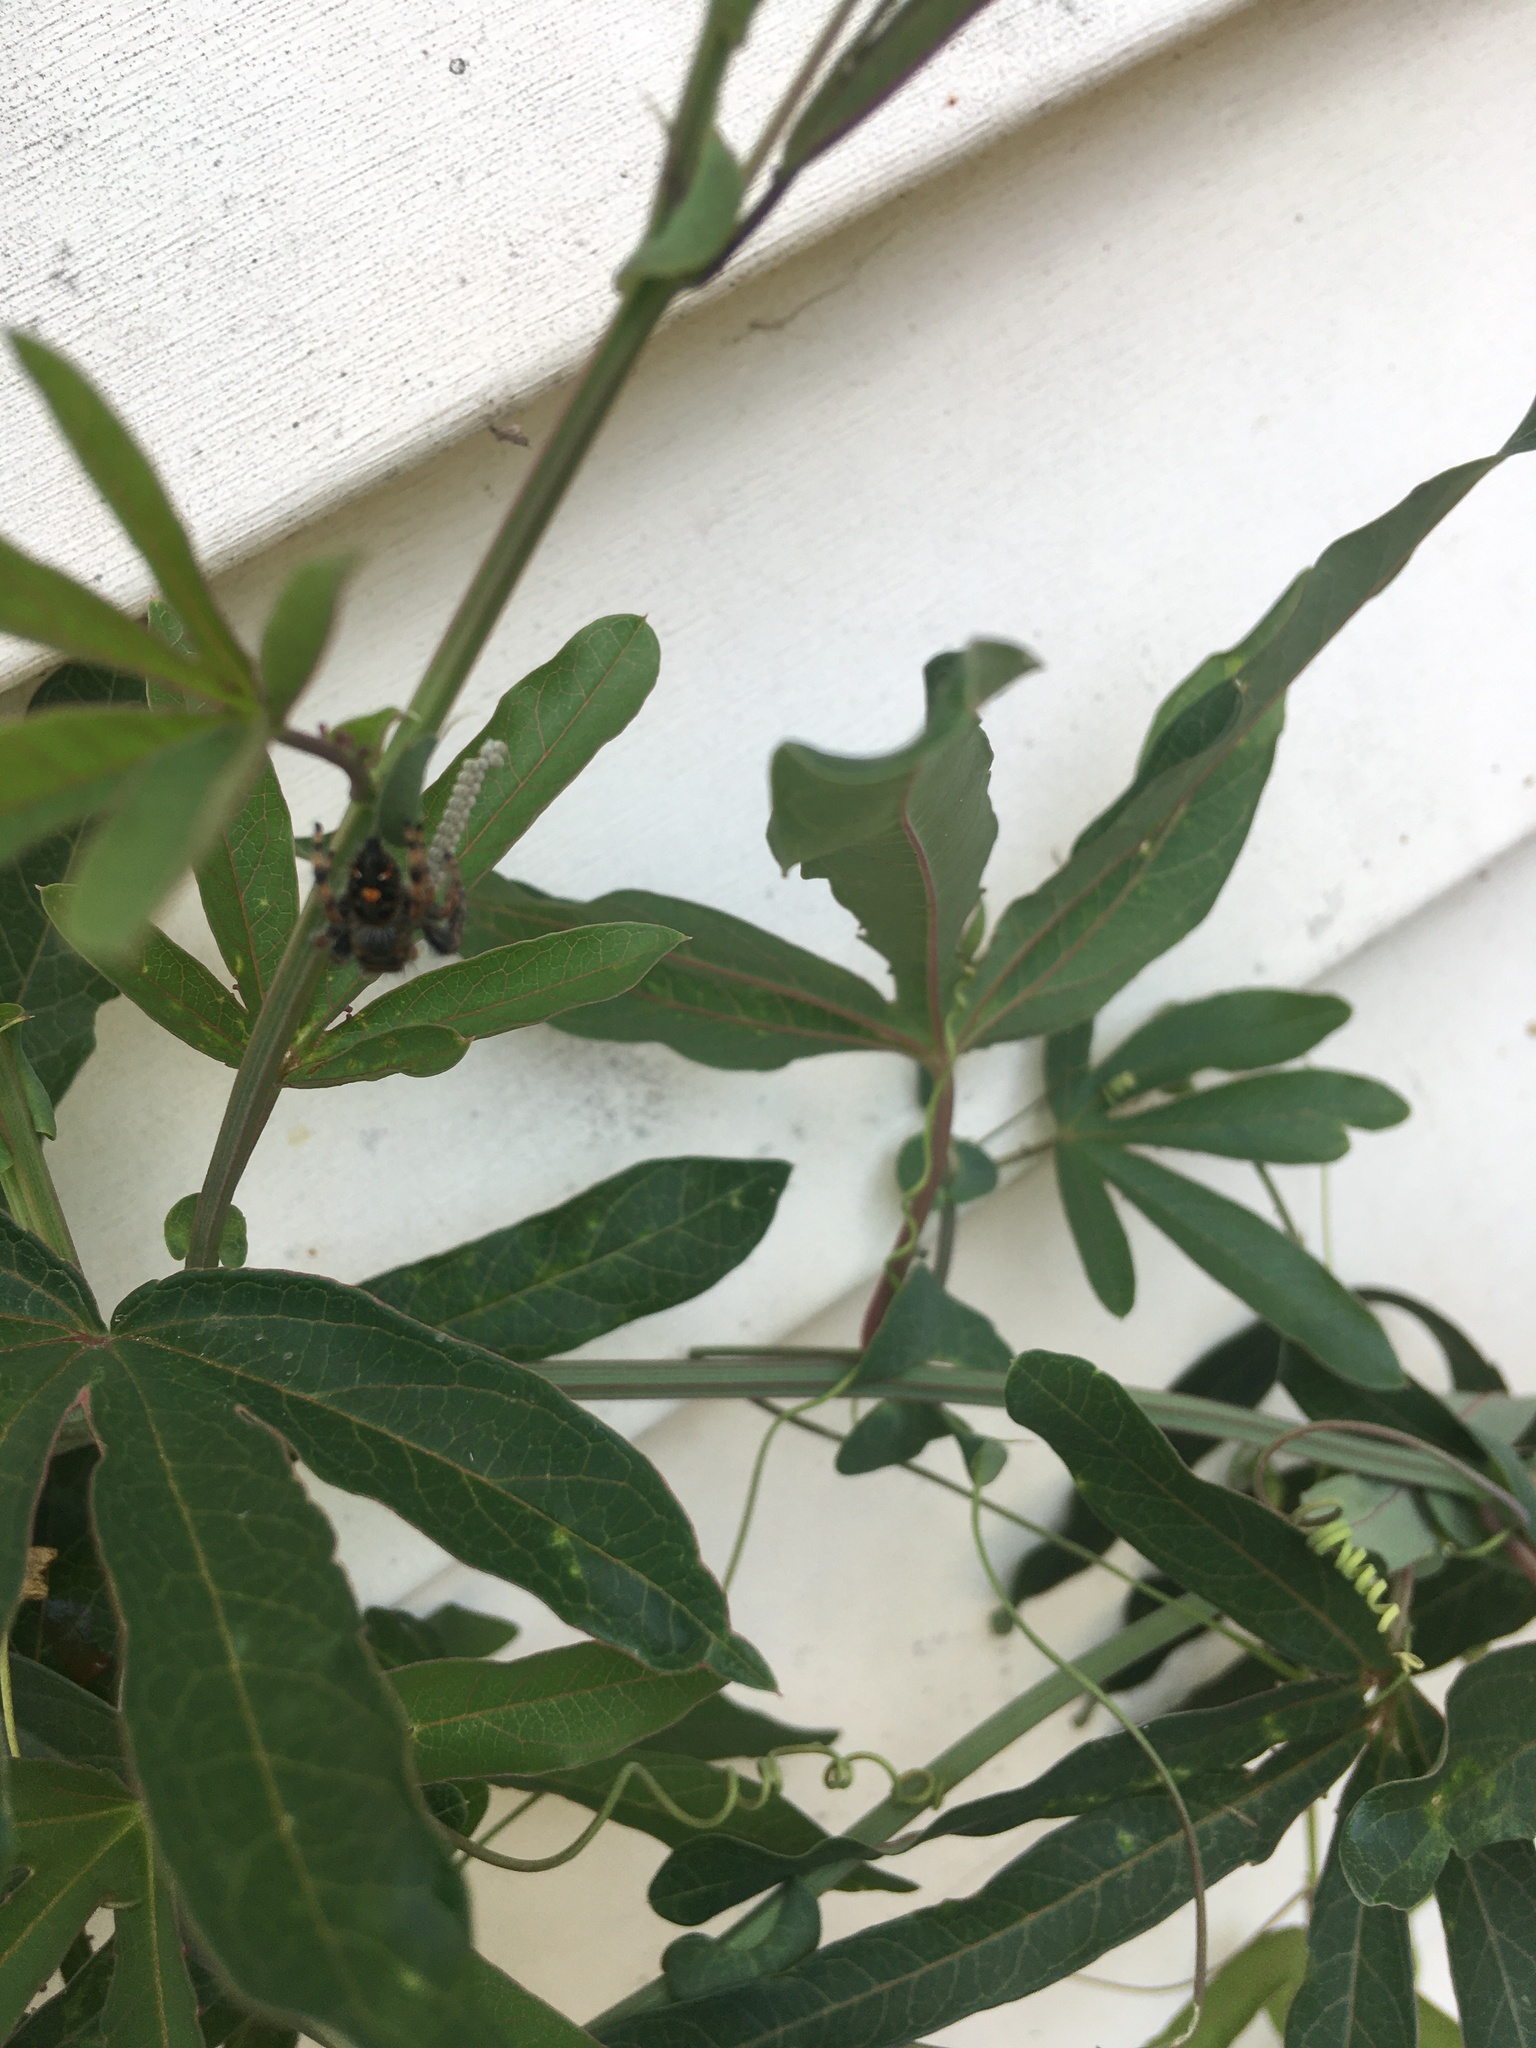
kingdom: Animalia
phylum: Arthropoda
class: Arachnida
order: Araneae
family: Salticidae
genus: Phidippus
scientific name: Phidippus audax
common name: Bold jumper
